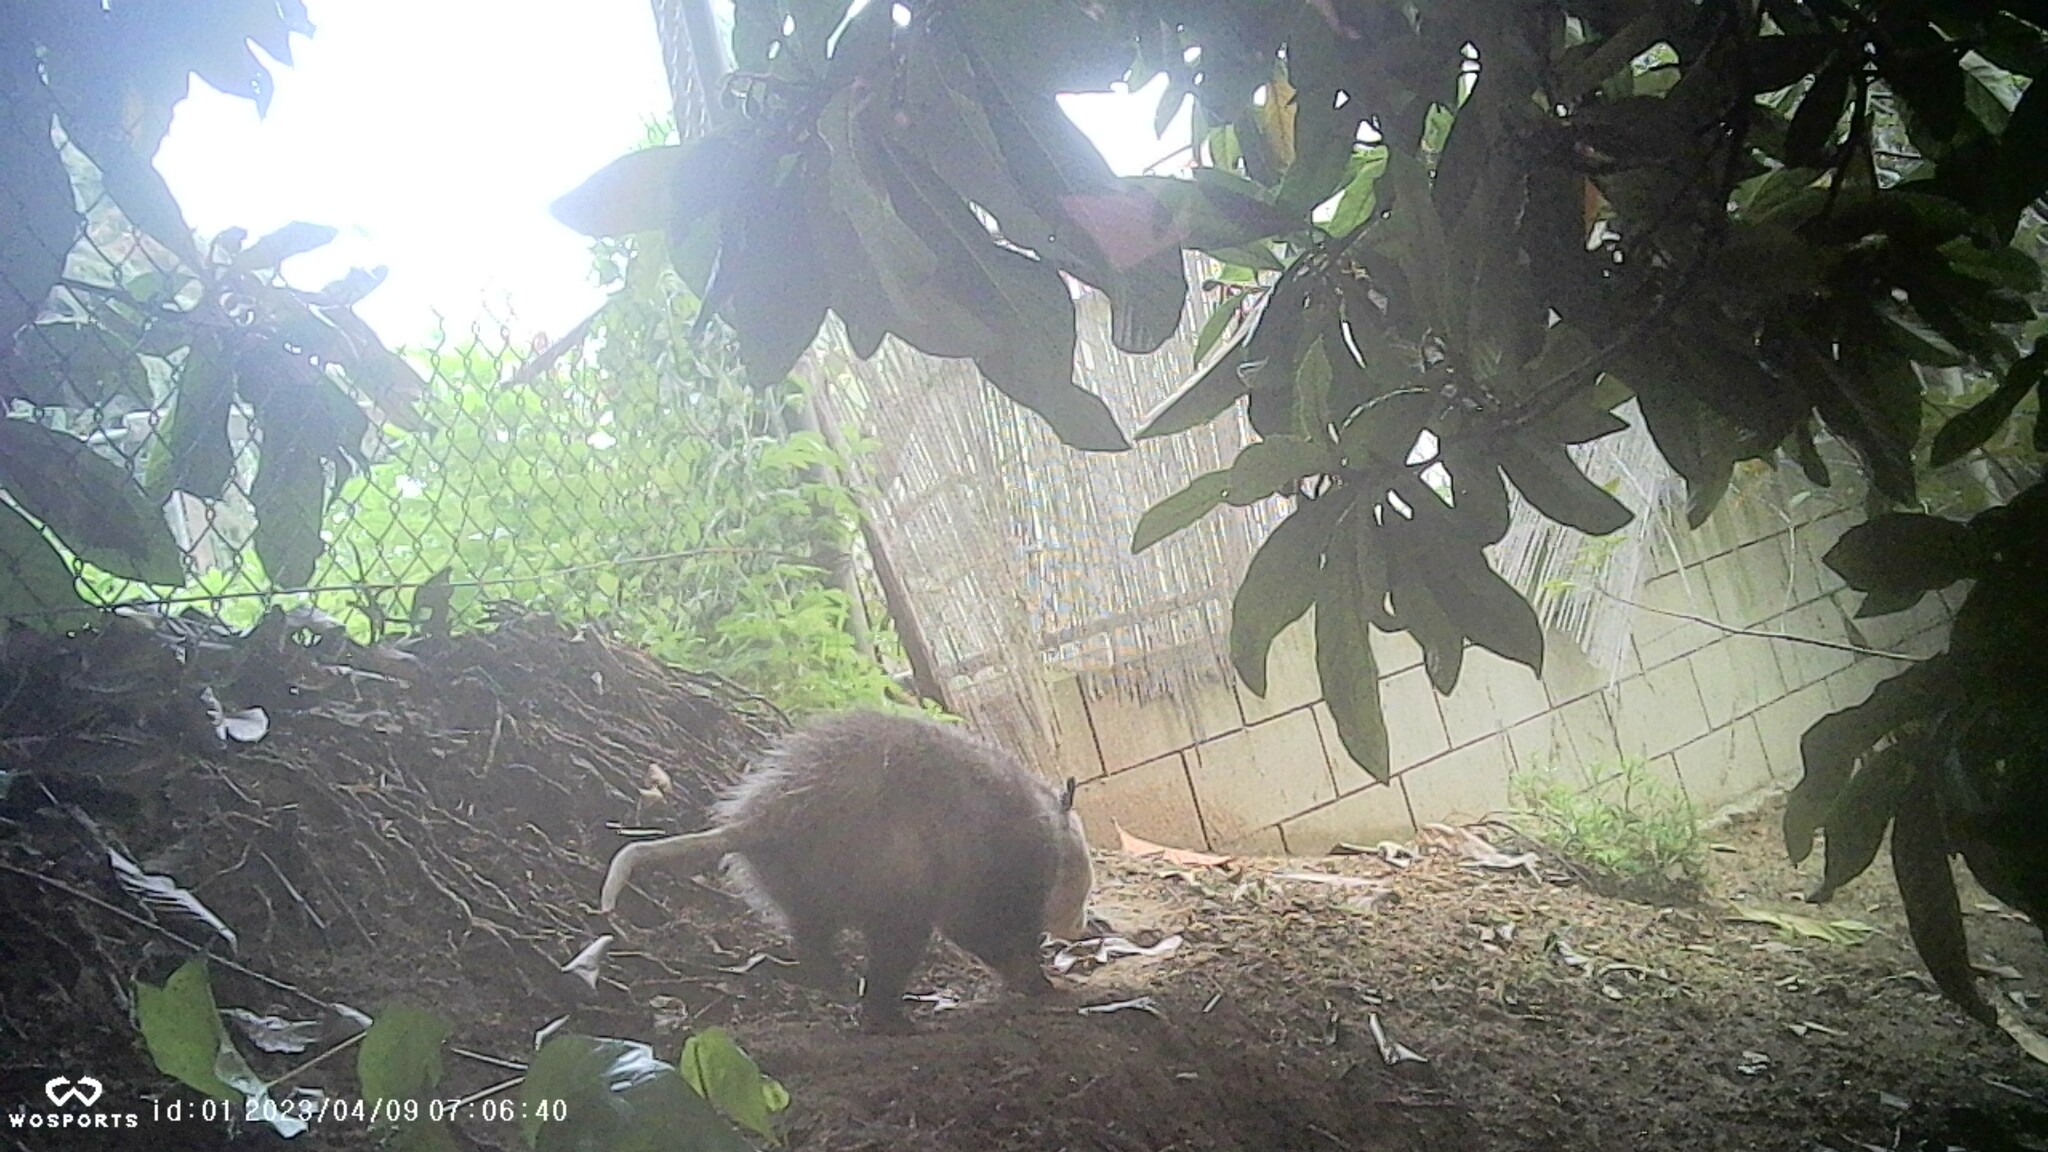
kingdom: Animalia
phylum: Chordata
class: Mammalia
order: Didelphimorphia
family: Didelphidae
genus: Didelphis
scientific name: Didelphis virginiana
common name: Virginia opossum
